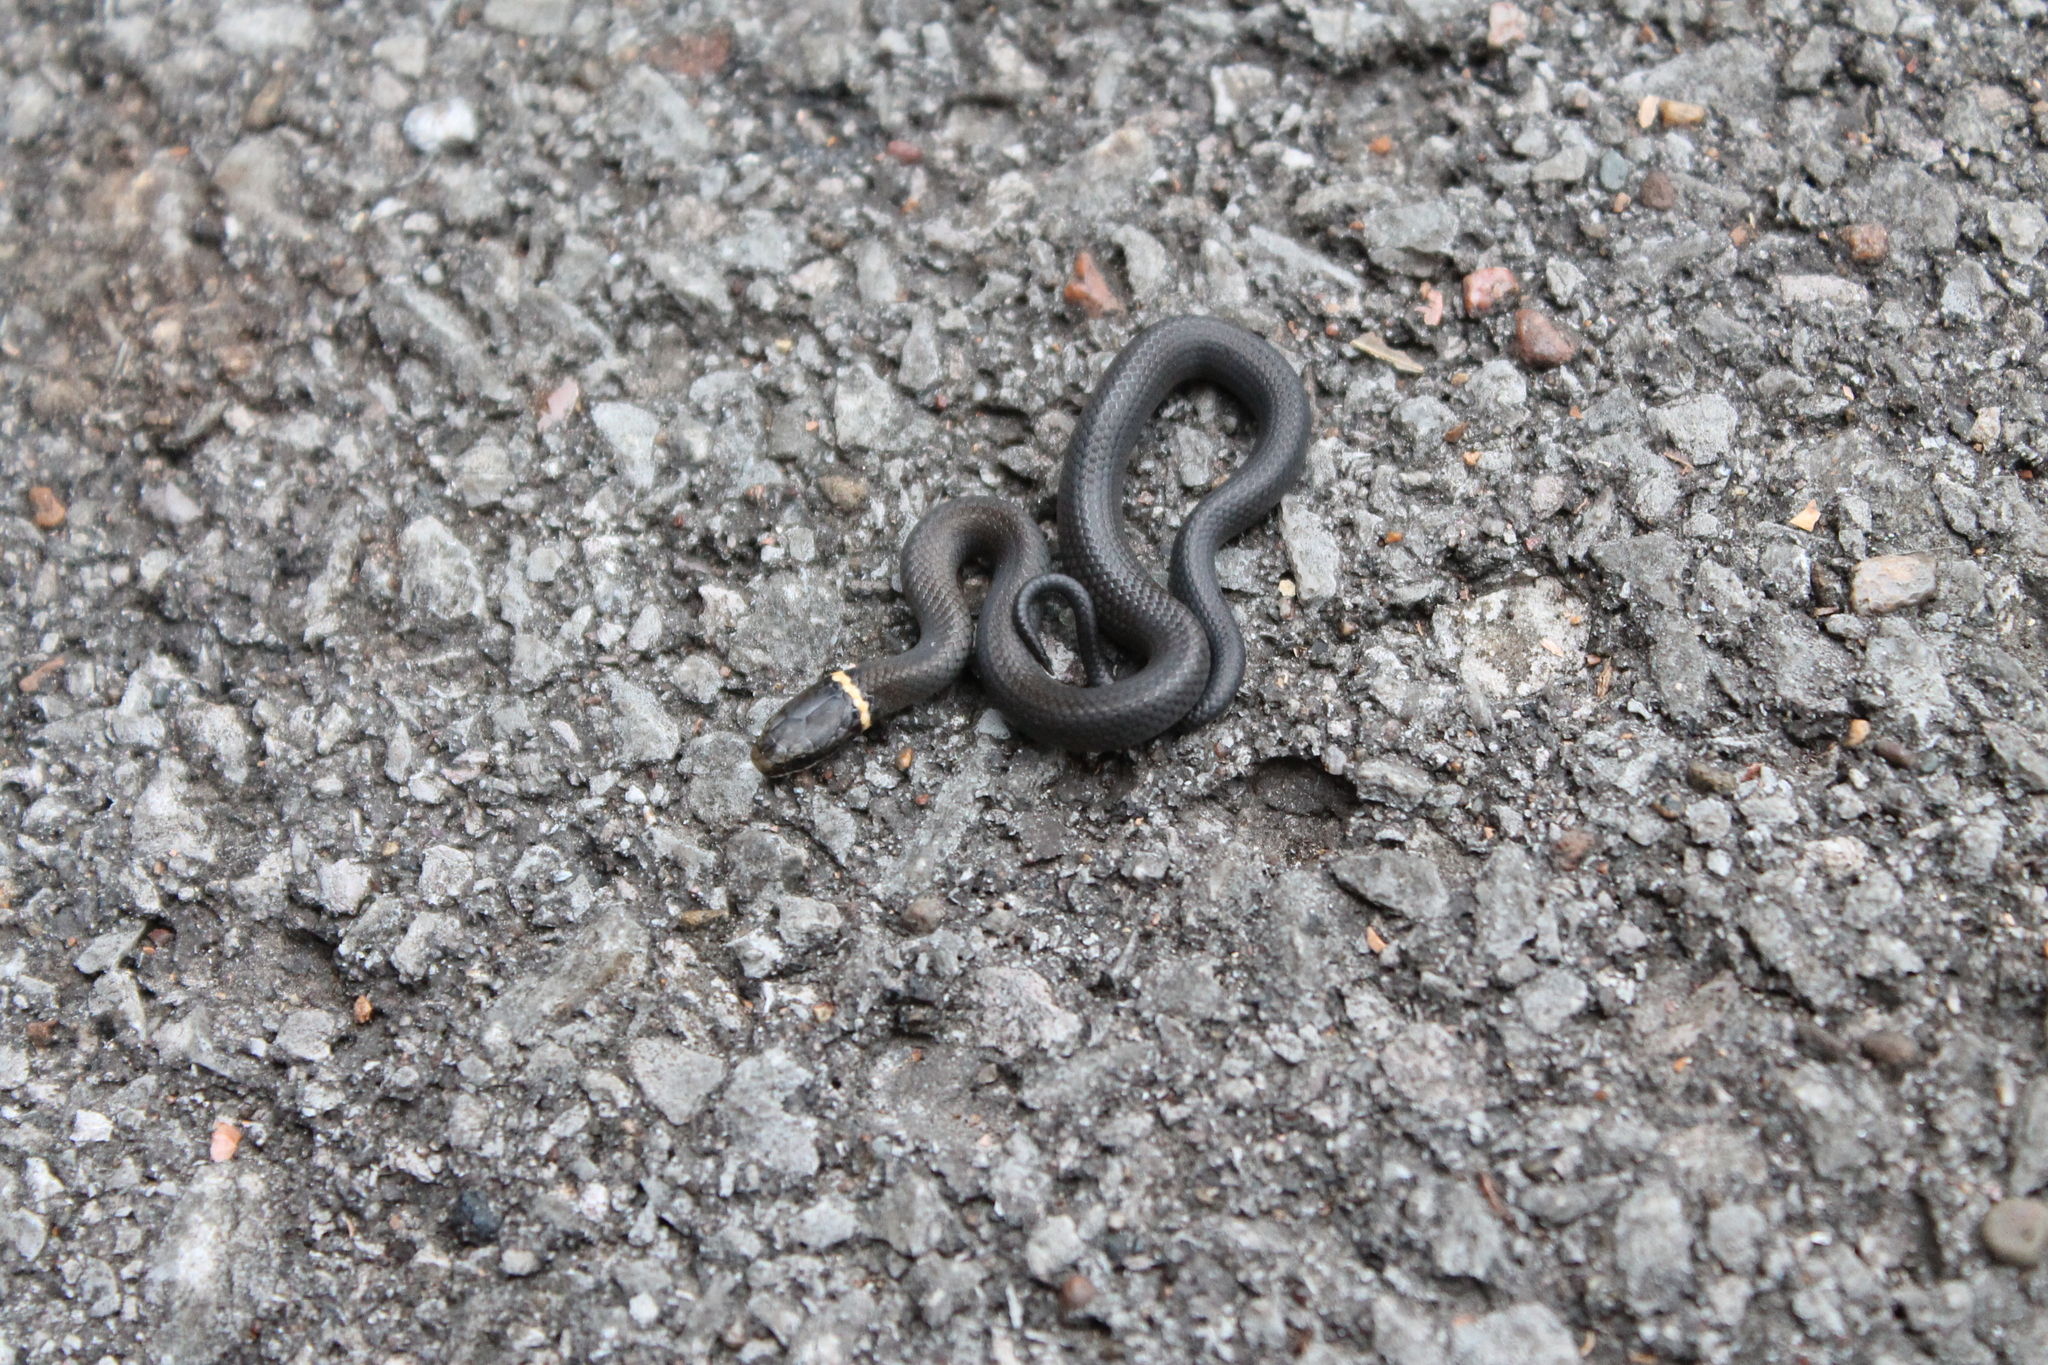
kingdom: Animalia
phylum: Chordata
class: Squamata
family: Colubridae
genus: Diadophis
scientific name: Diadophis punctatus
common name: Ringneck snake
